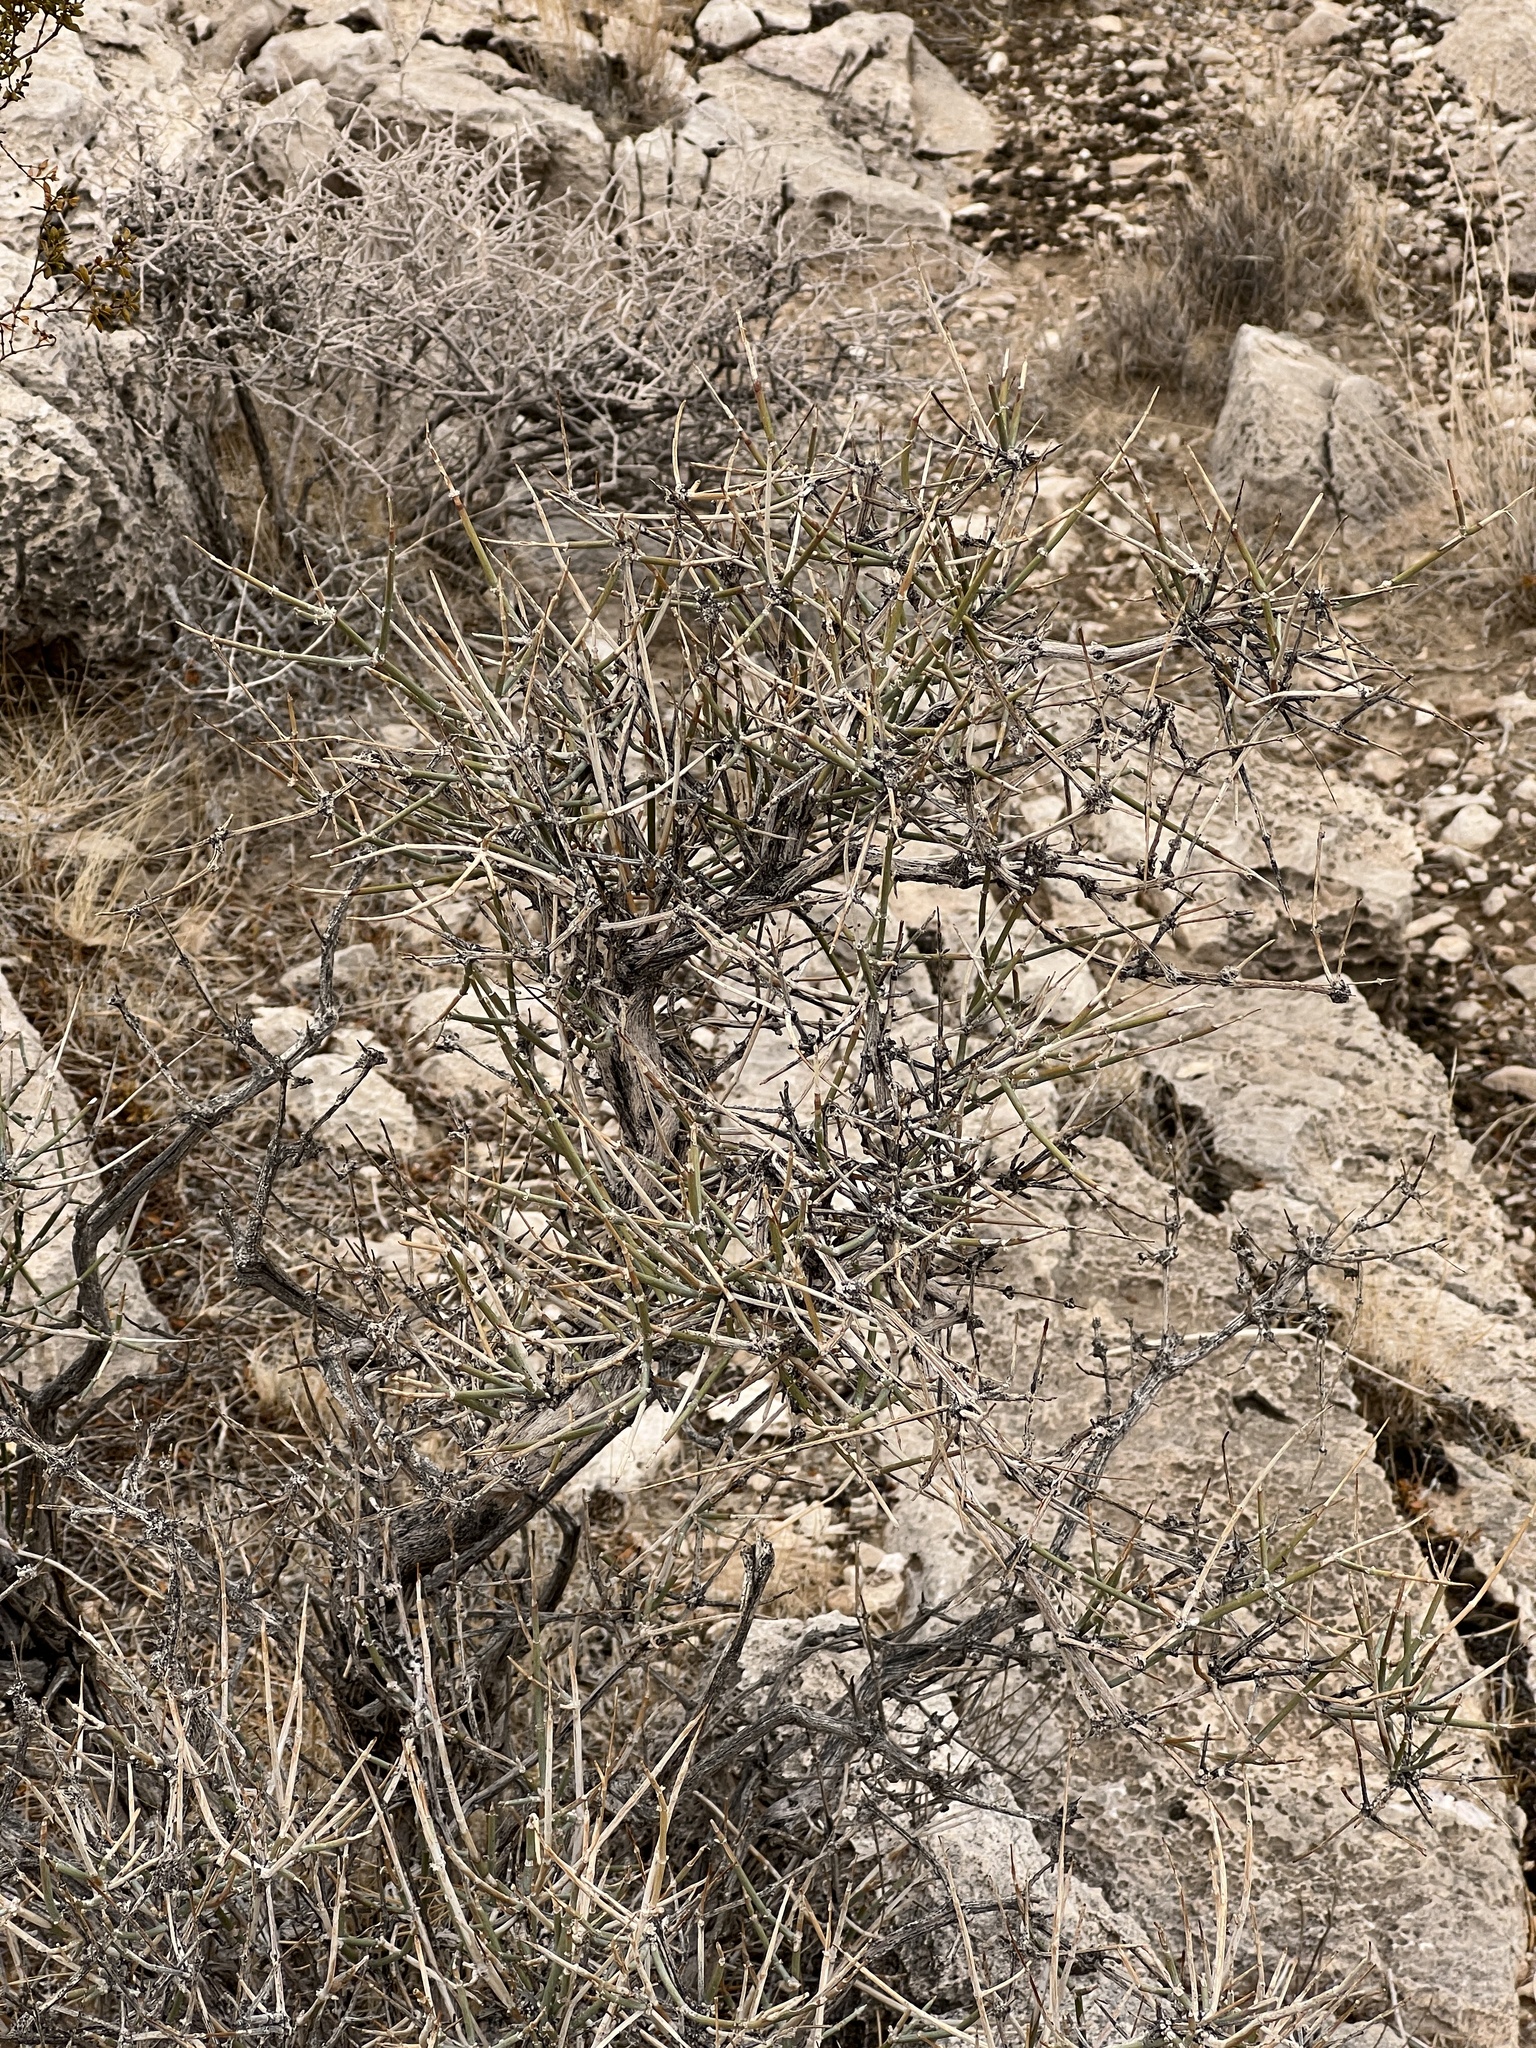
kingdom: Plantae
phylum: Tracheophyta
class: Gnetopsida
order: Ephedrales
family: Ephedraceae
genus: Ephedra
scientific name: Ephedra nevadensis
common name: Gray ephedra
